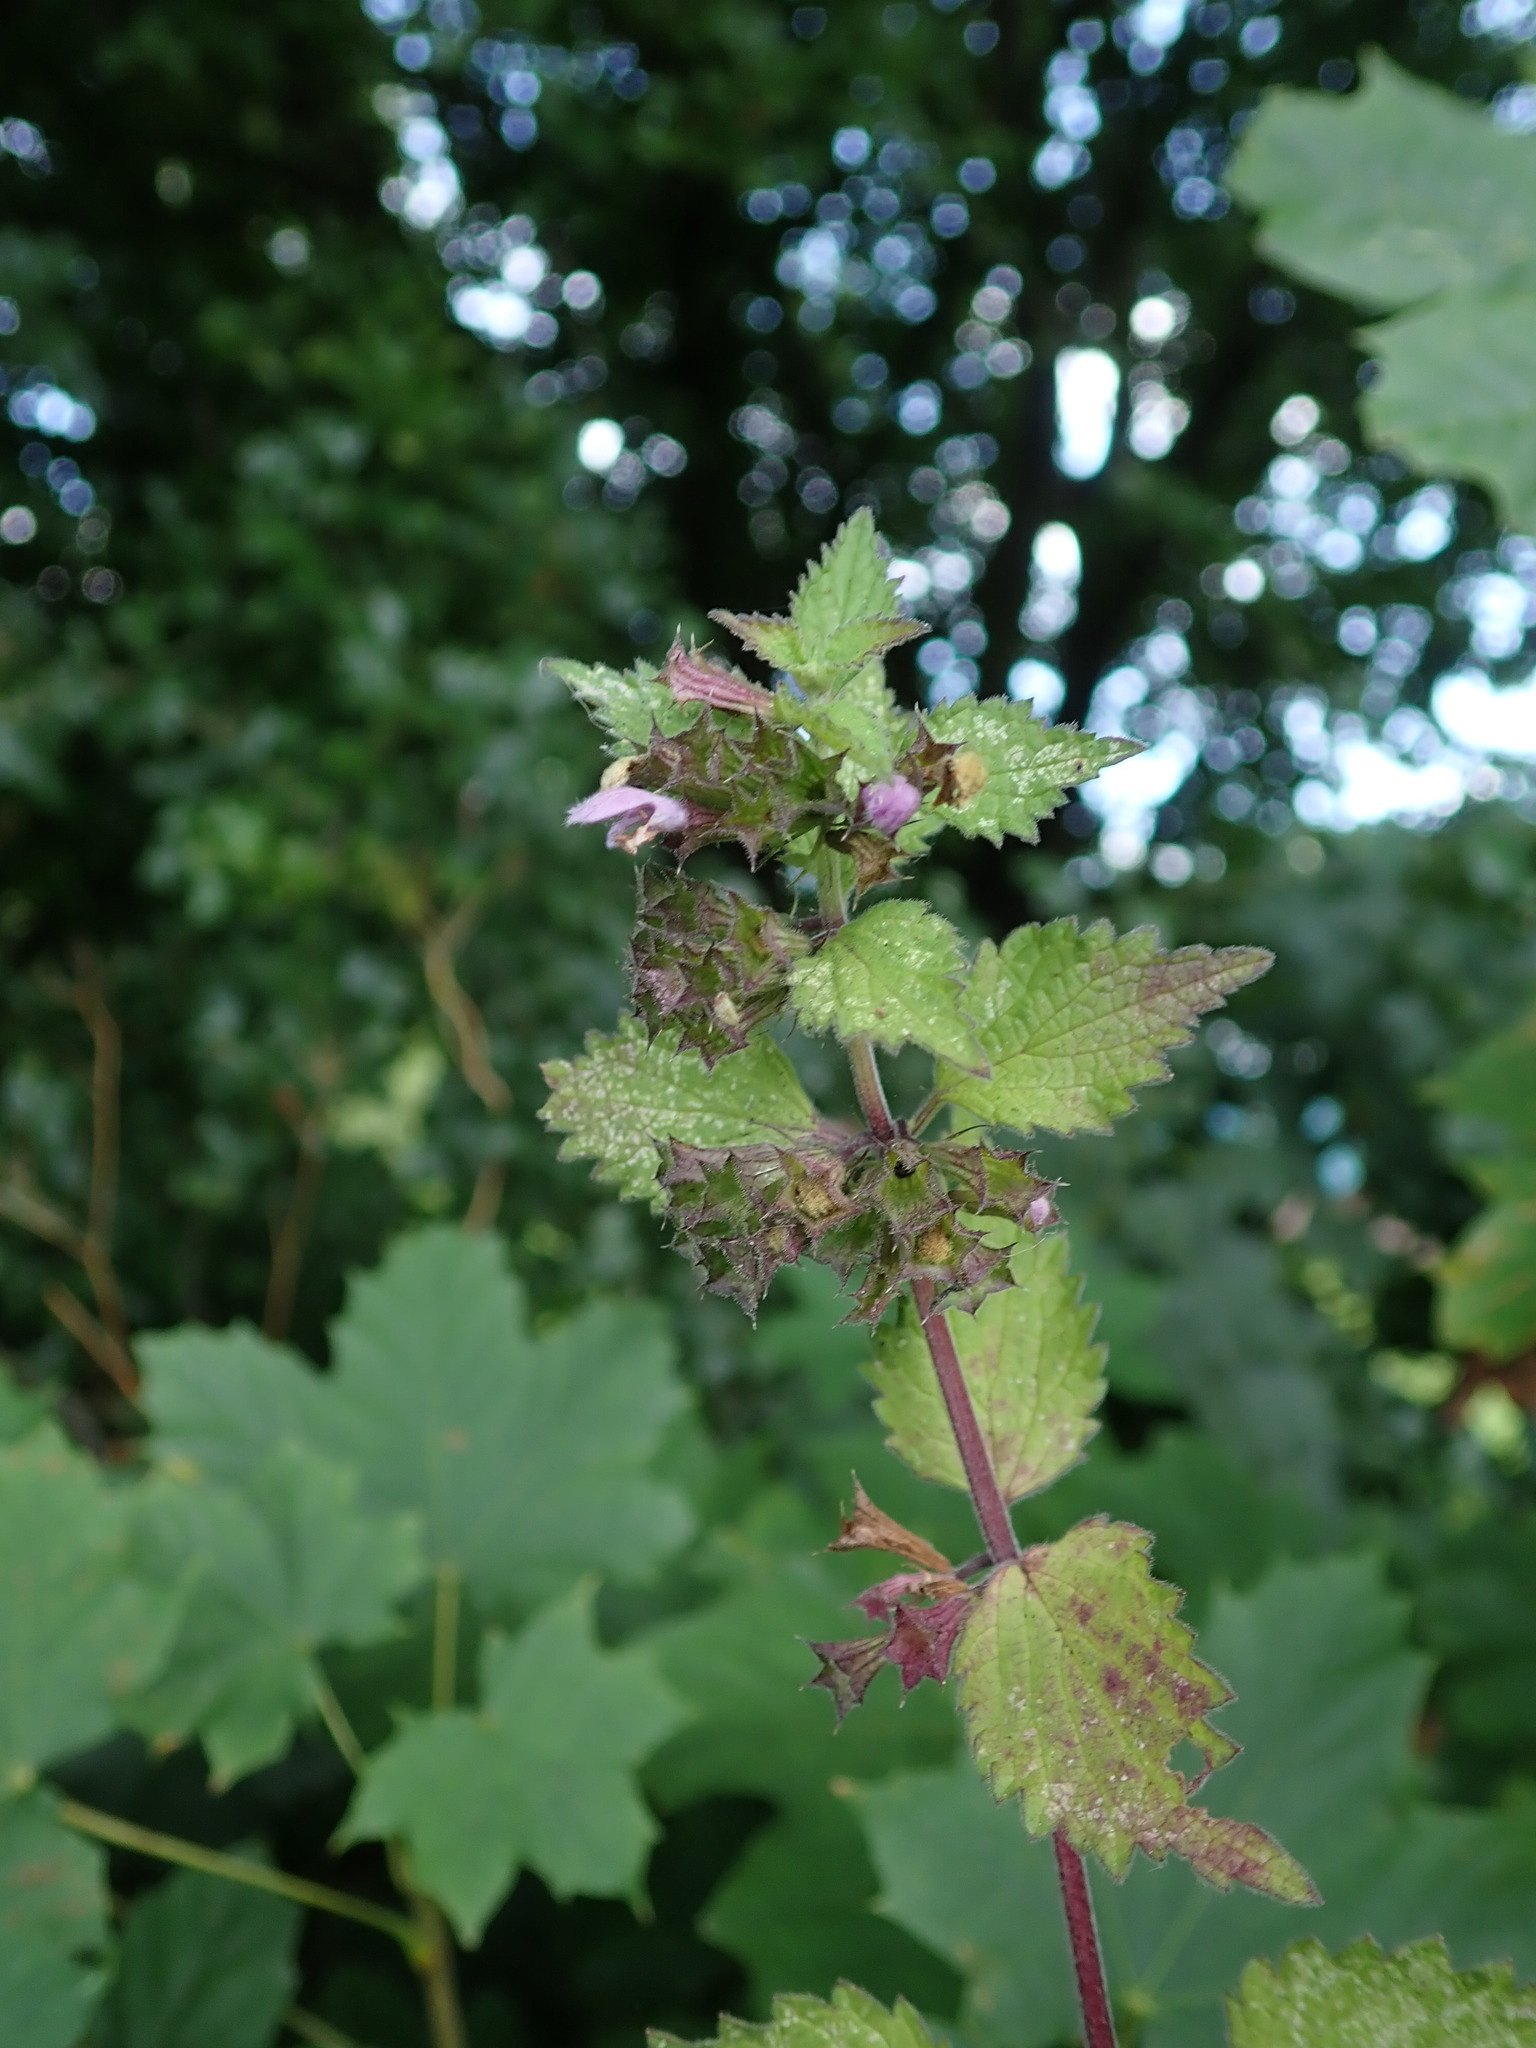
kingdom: Plantae
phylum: Tracheophyta
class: Magnoliopsida
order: Lamiales
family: Lamiaceae
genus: Ballota
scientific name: Ballota nigra
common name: Black horehound
